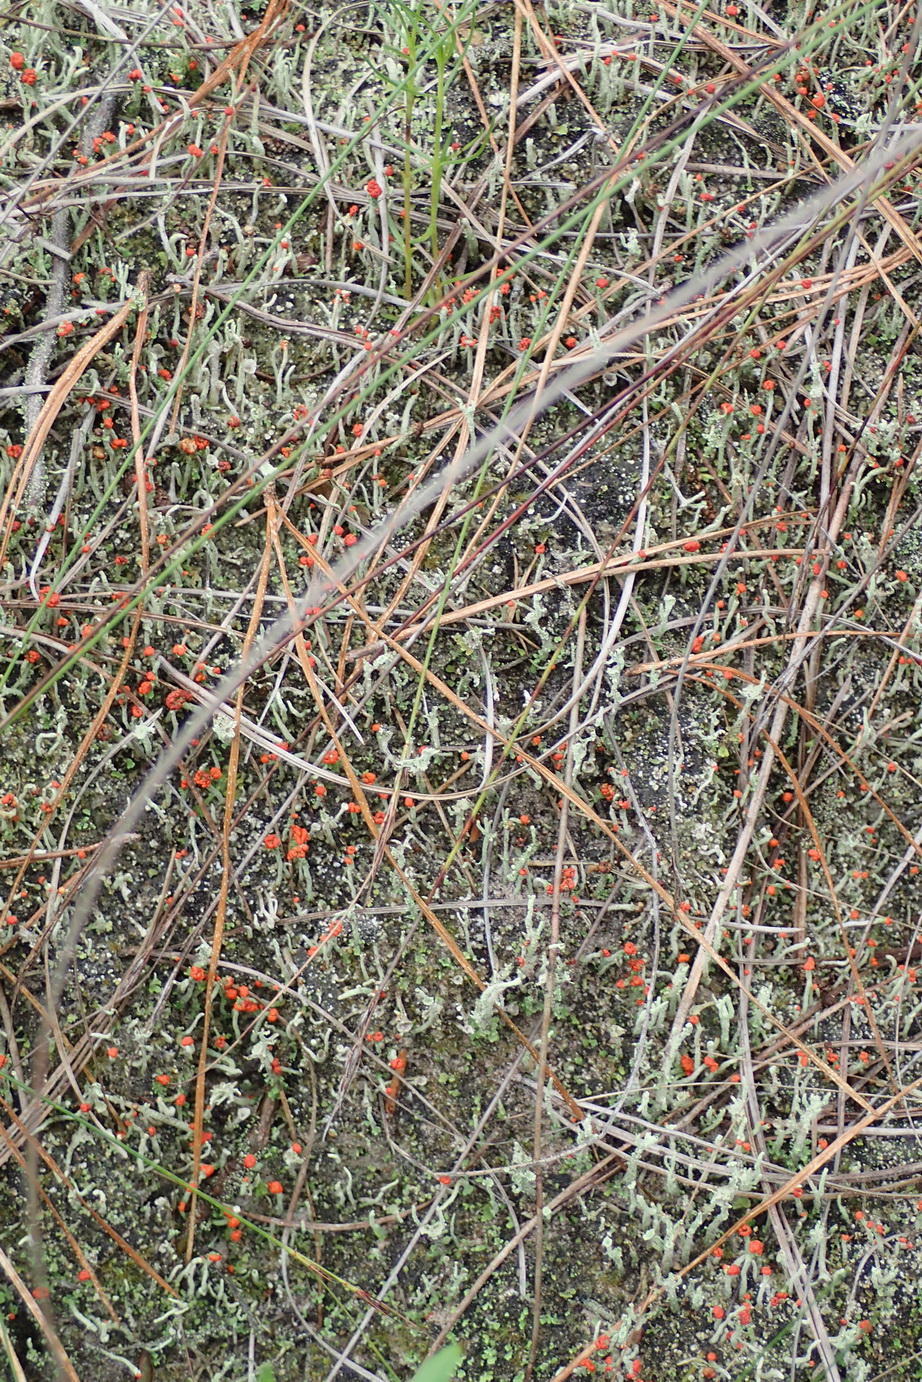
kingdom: Fungi
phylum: Ascomycota
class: Lecanoromycetes
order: Lecanorales
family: Cladoniaceae
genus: Cladonia
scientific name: Cladonia floerkeana
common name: Gritty british soldiers lichen
